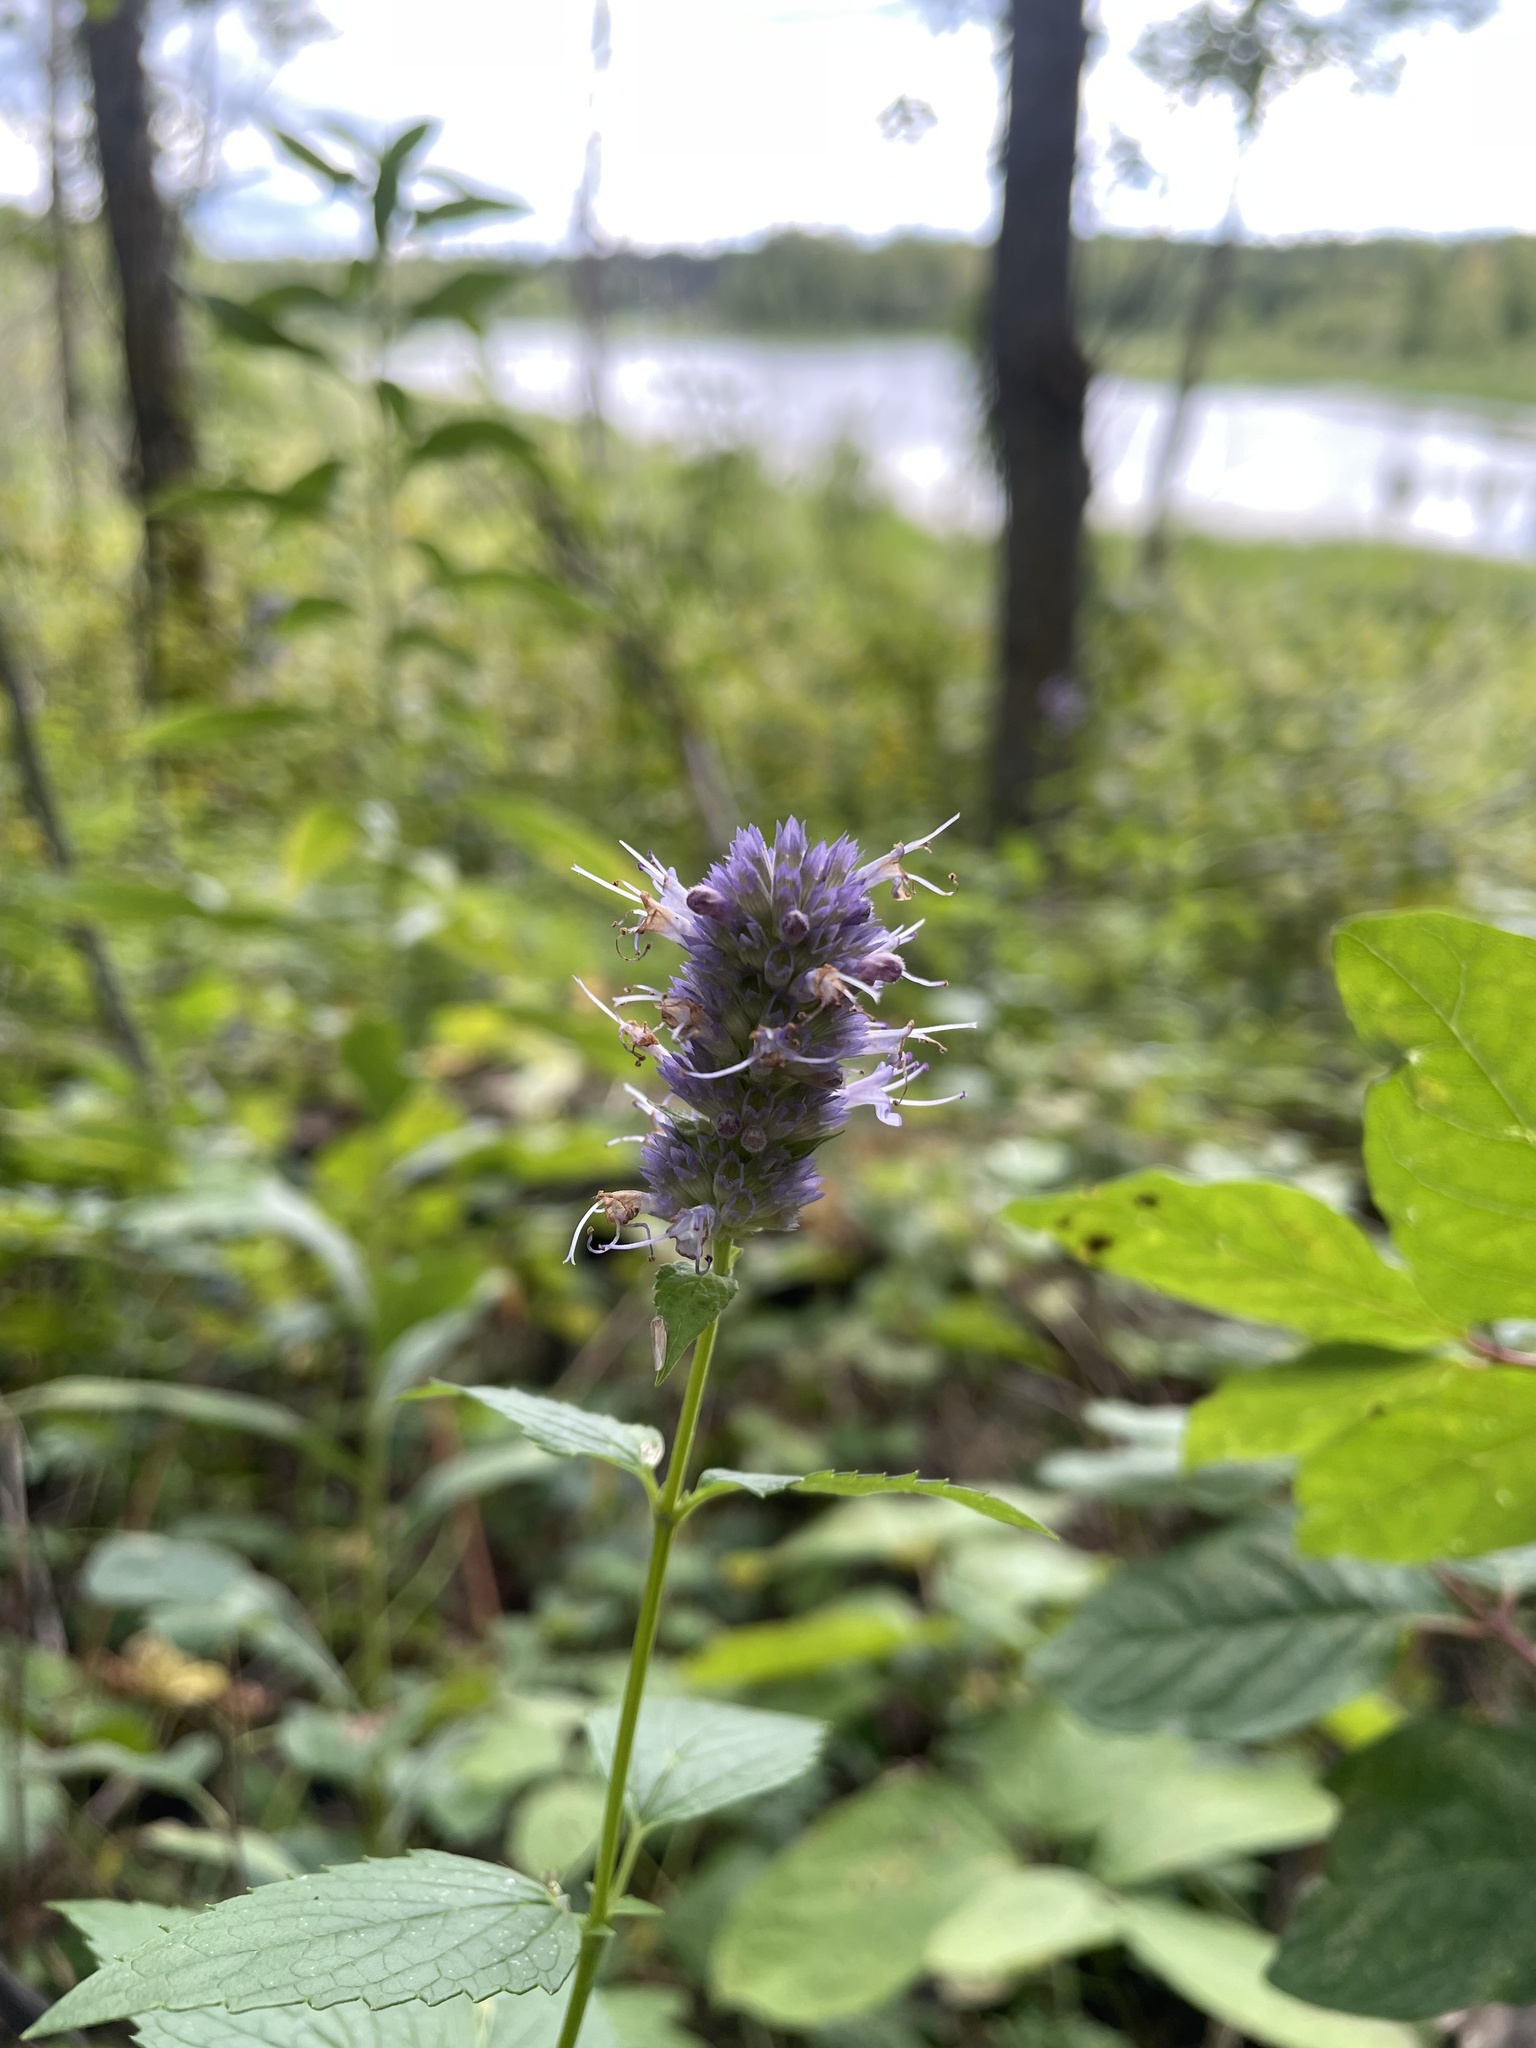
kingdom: Plantae
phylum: Tracheophyta
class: Magnoliopsida
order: Lamiales
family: Lamiaceae
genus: Agastache
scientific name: Agastache foeniculum
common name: Anise hyssop
